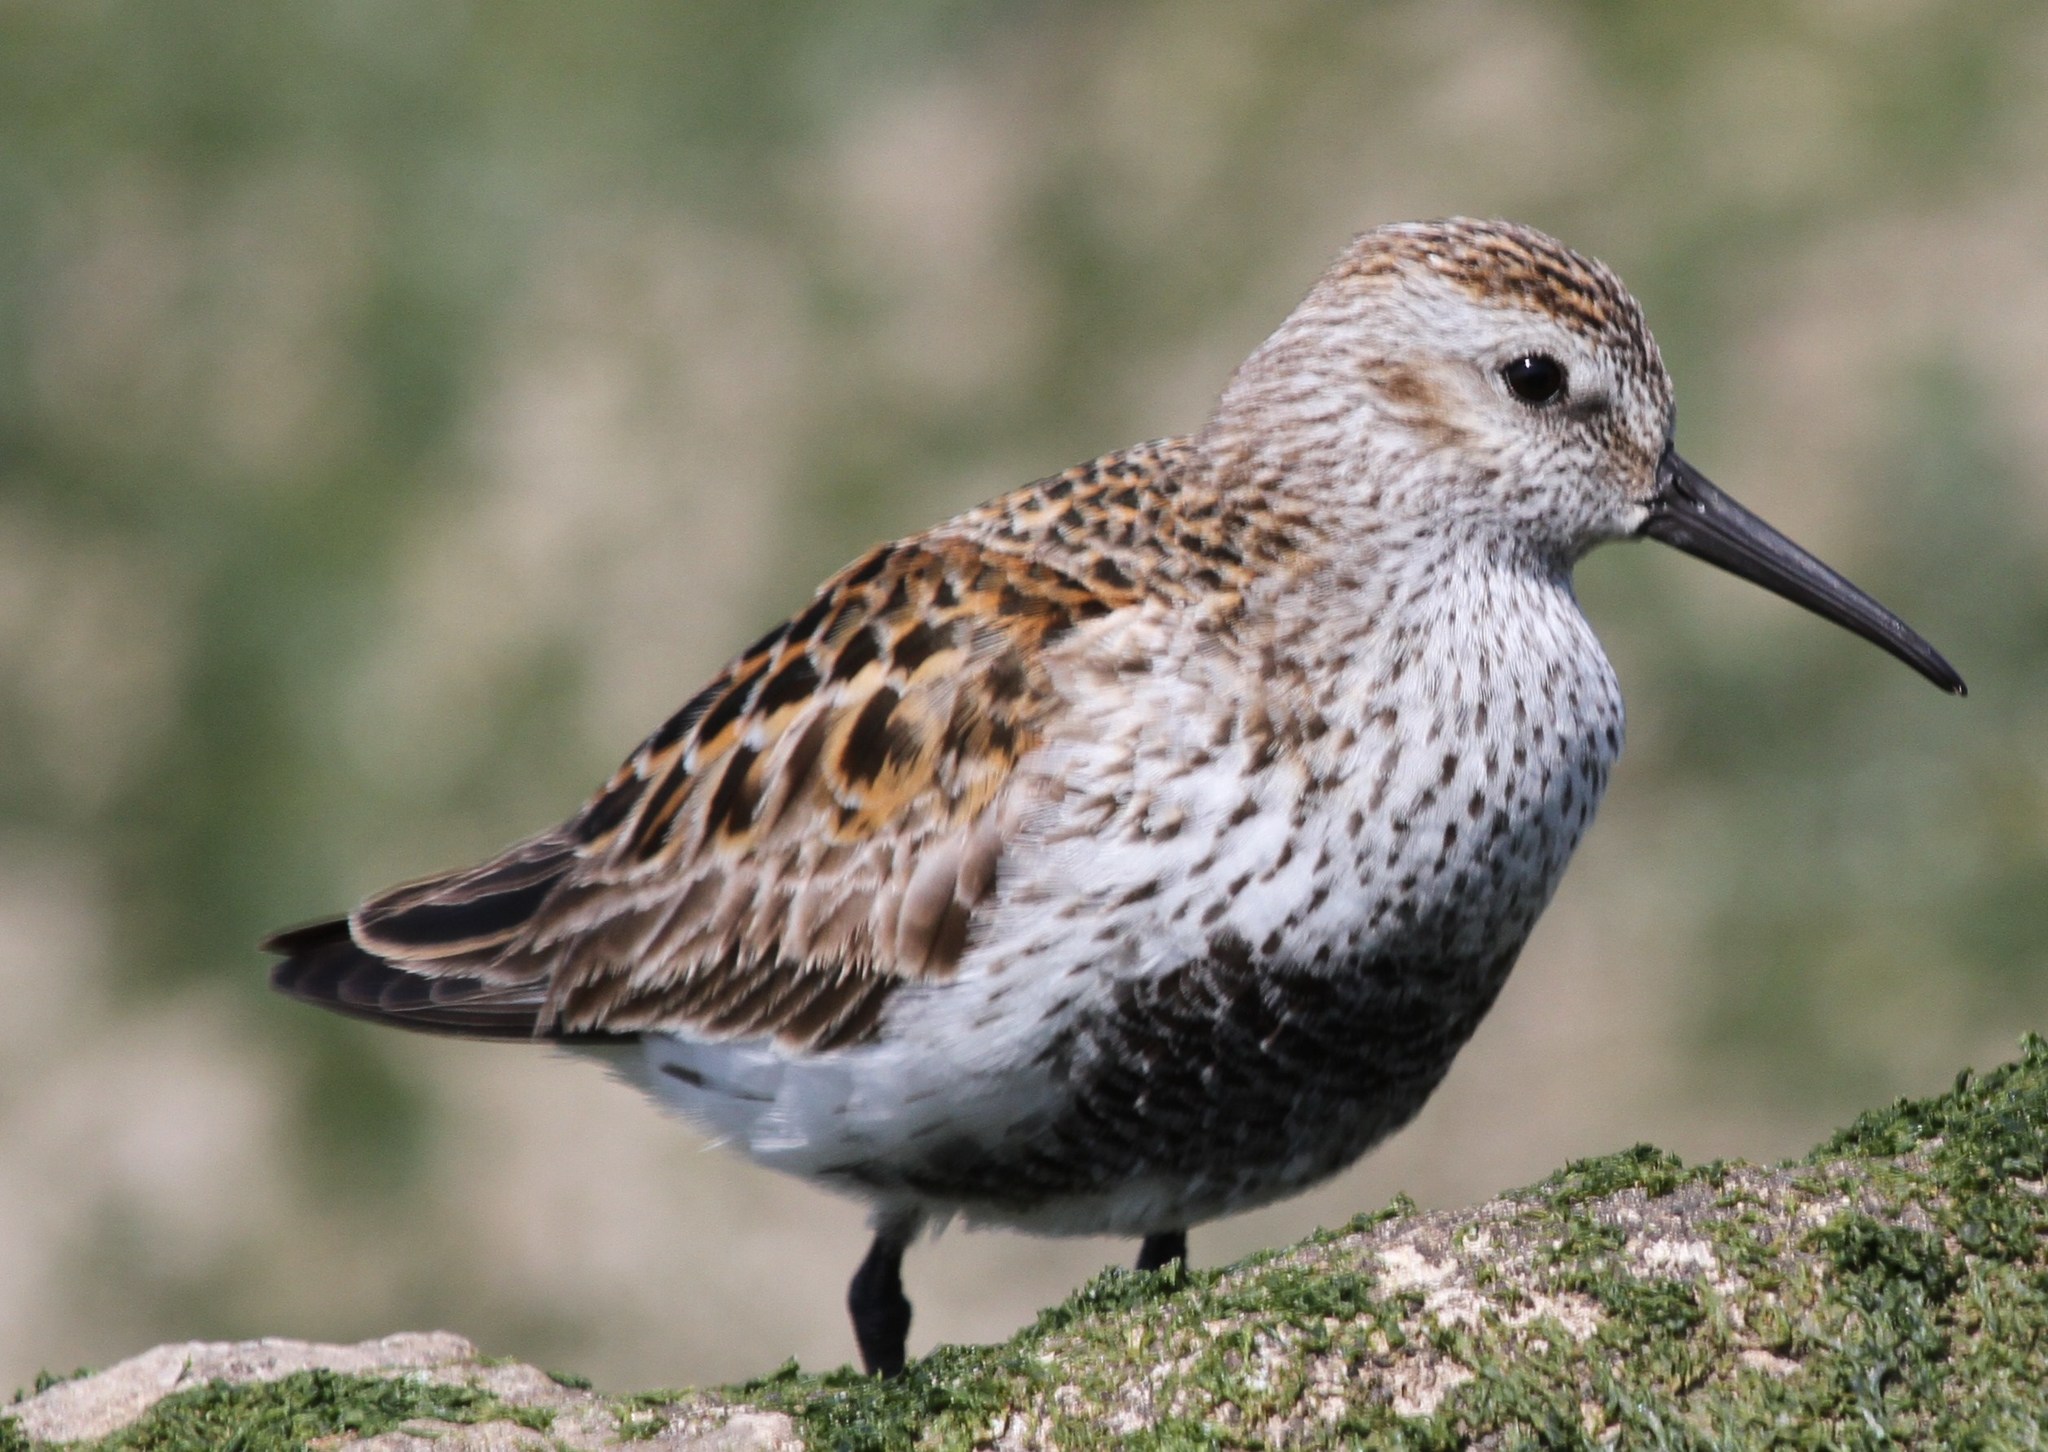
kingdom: Animalia
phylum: Chordata
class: Aves
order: Charadriiformes
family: Scolopacidae
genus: Calidris
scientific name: Calidris alpina
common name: Dunlin
